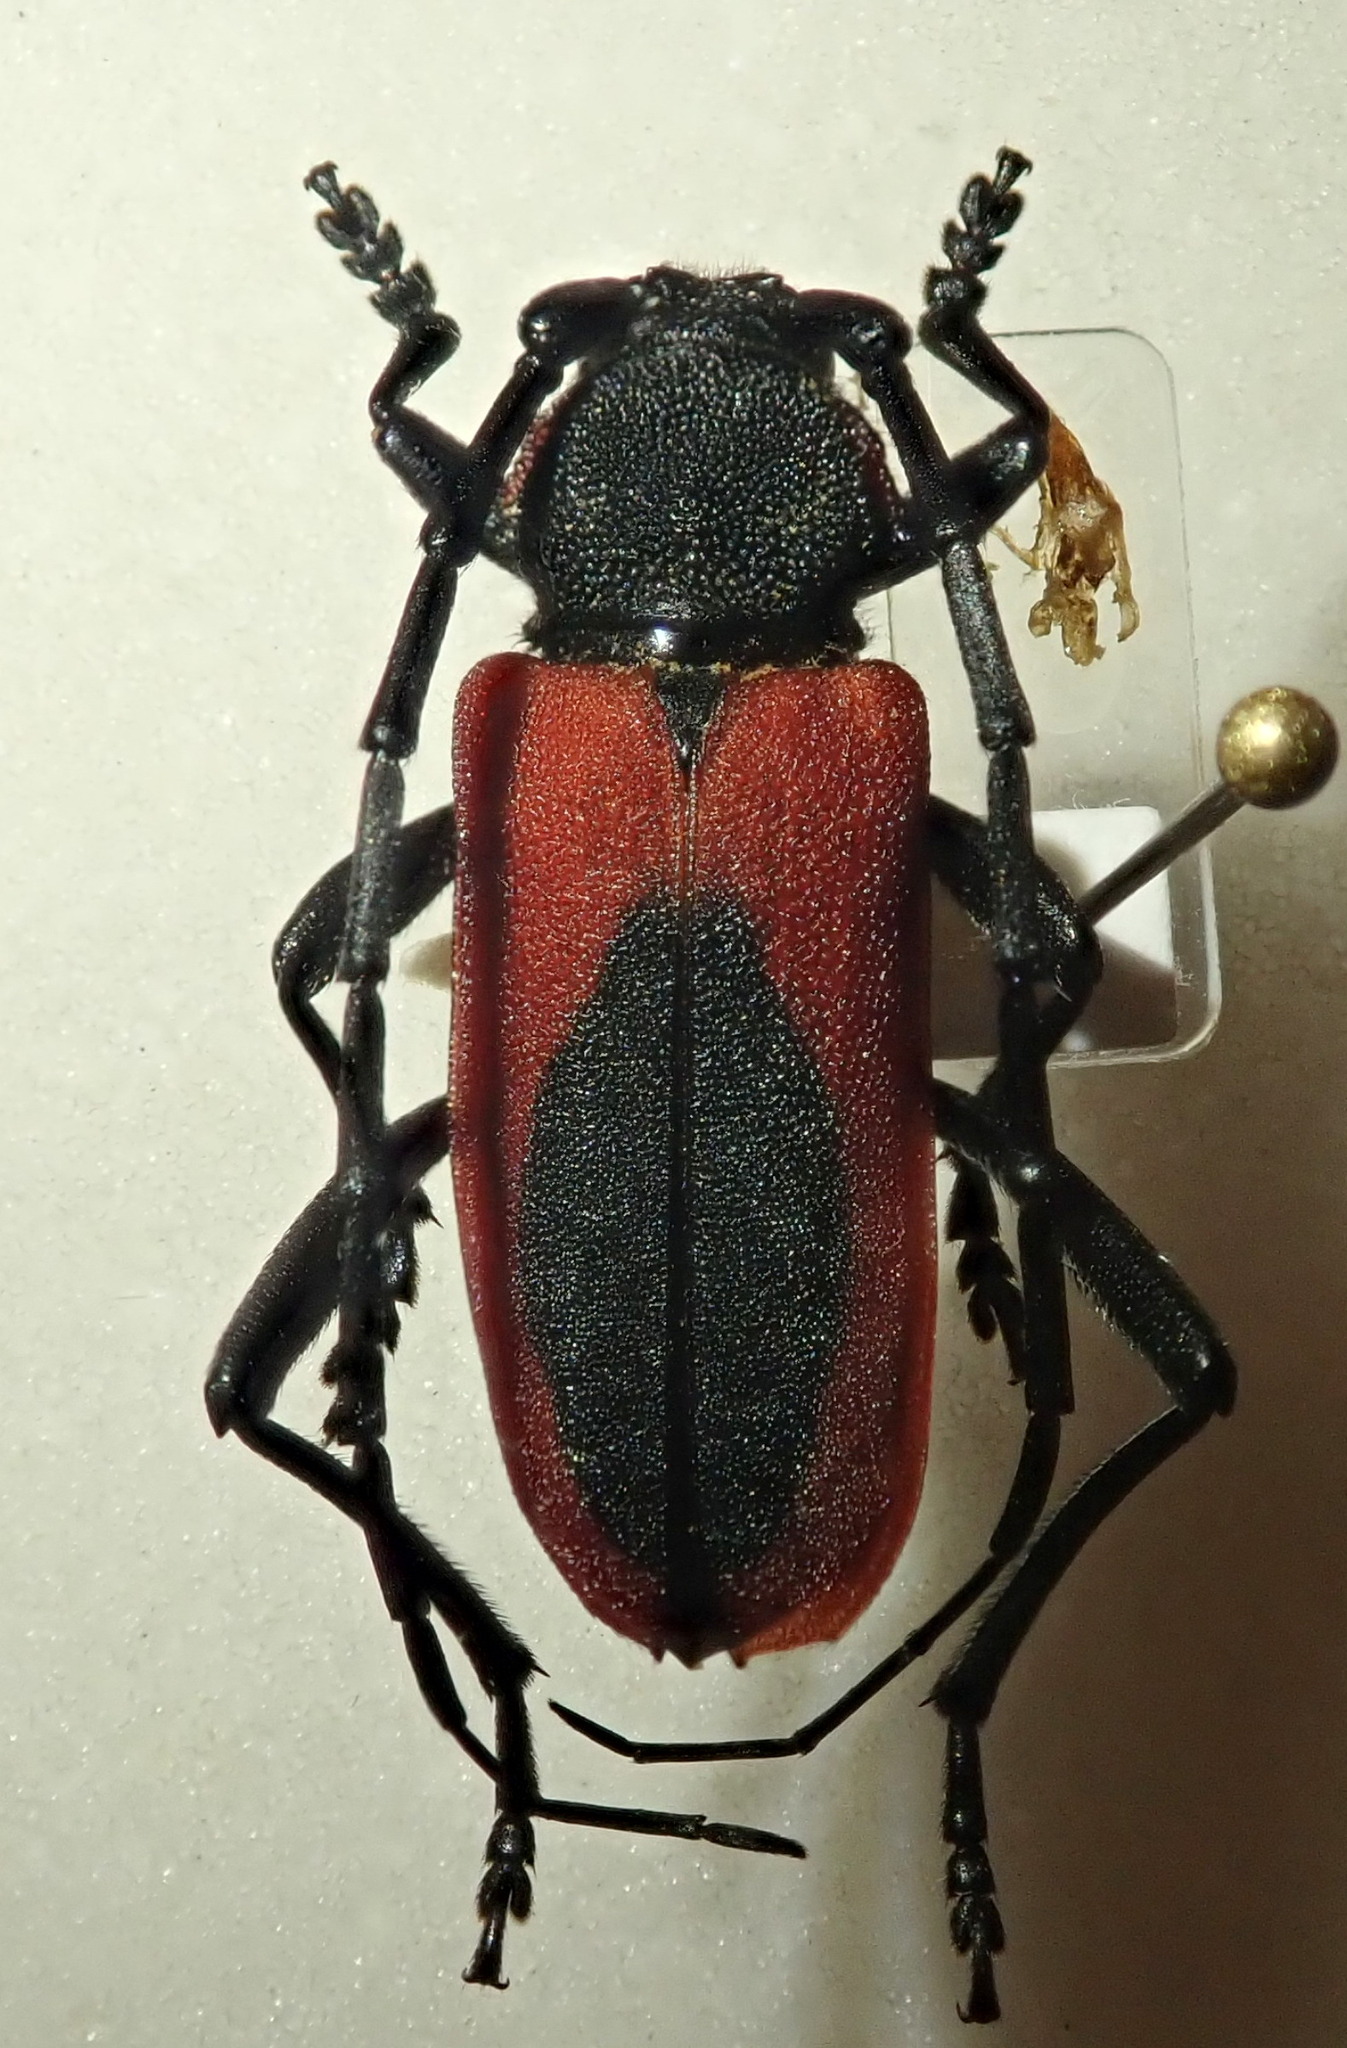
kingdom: Animalia
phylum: Arthropoda
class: Insecta
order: Coleoptera
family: Cerambycidae
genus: Purpuricenus
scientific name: Purpuricenus kaehleri
